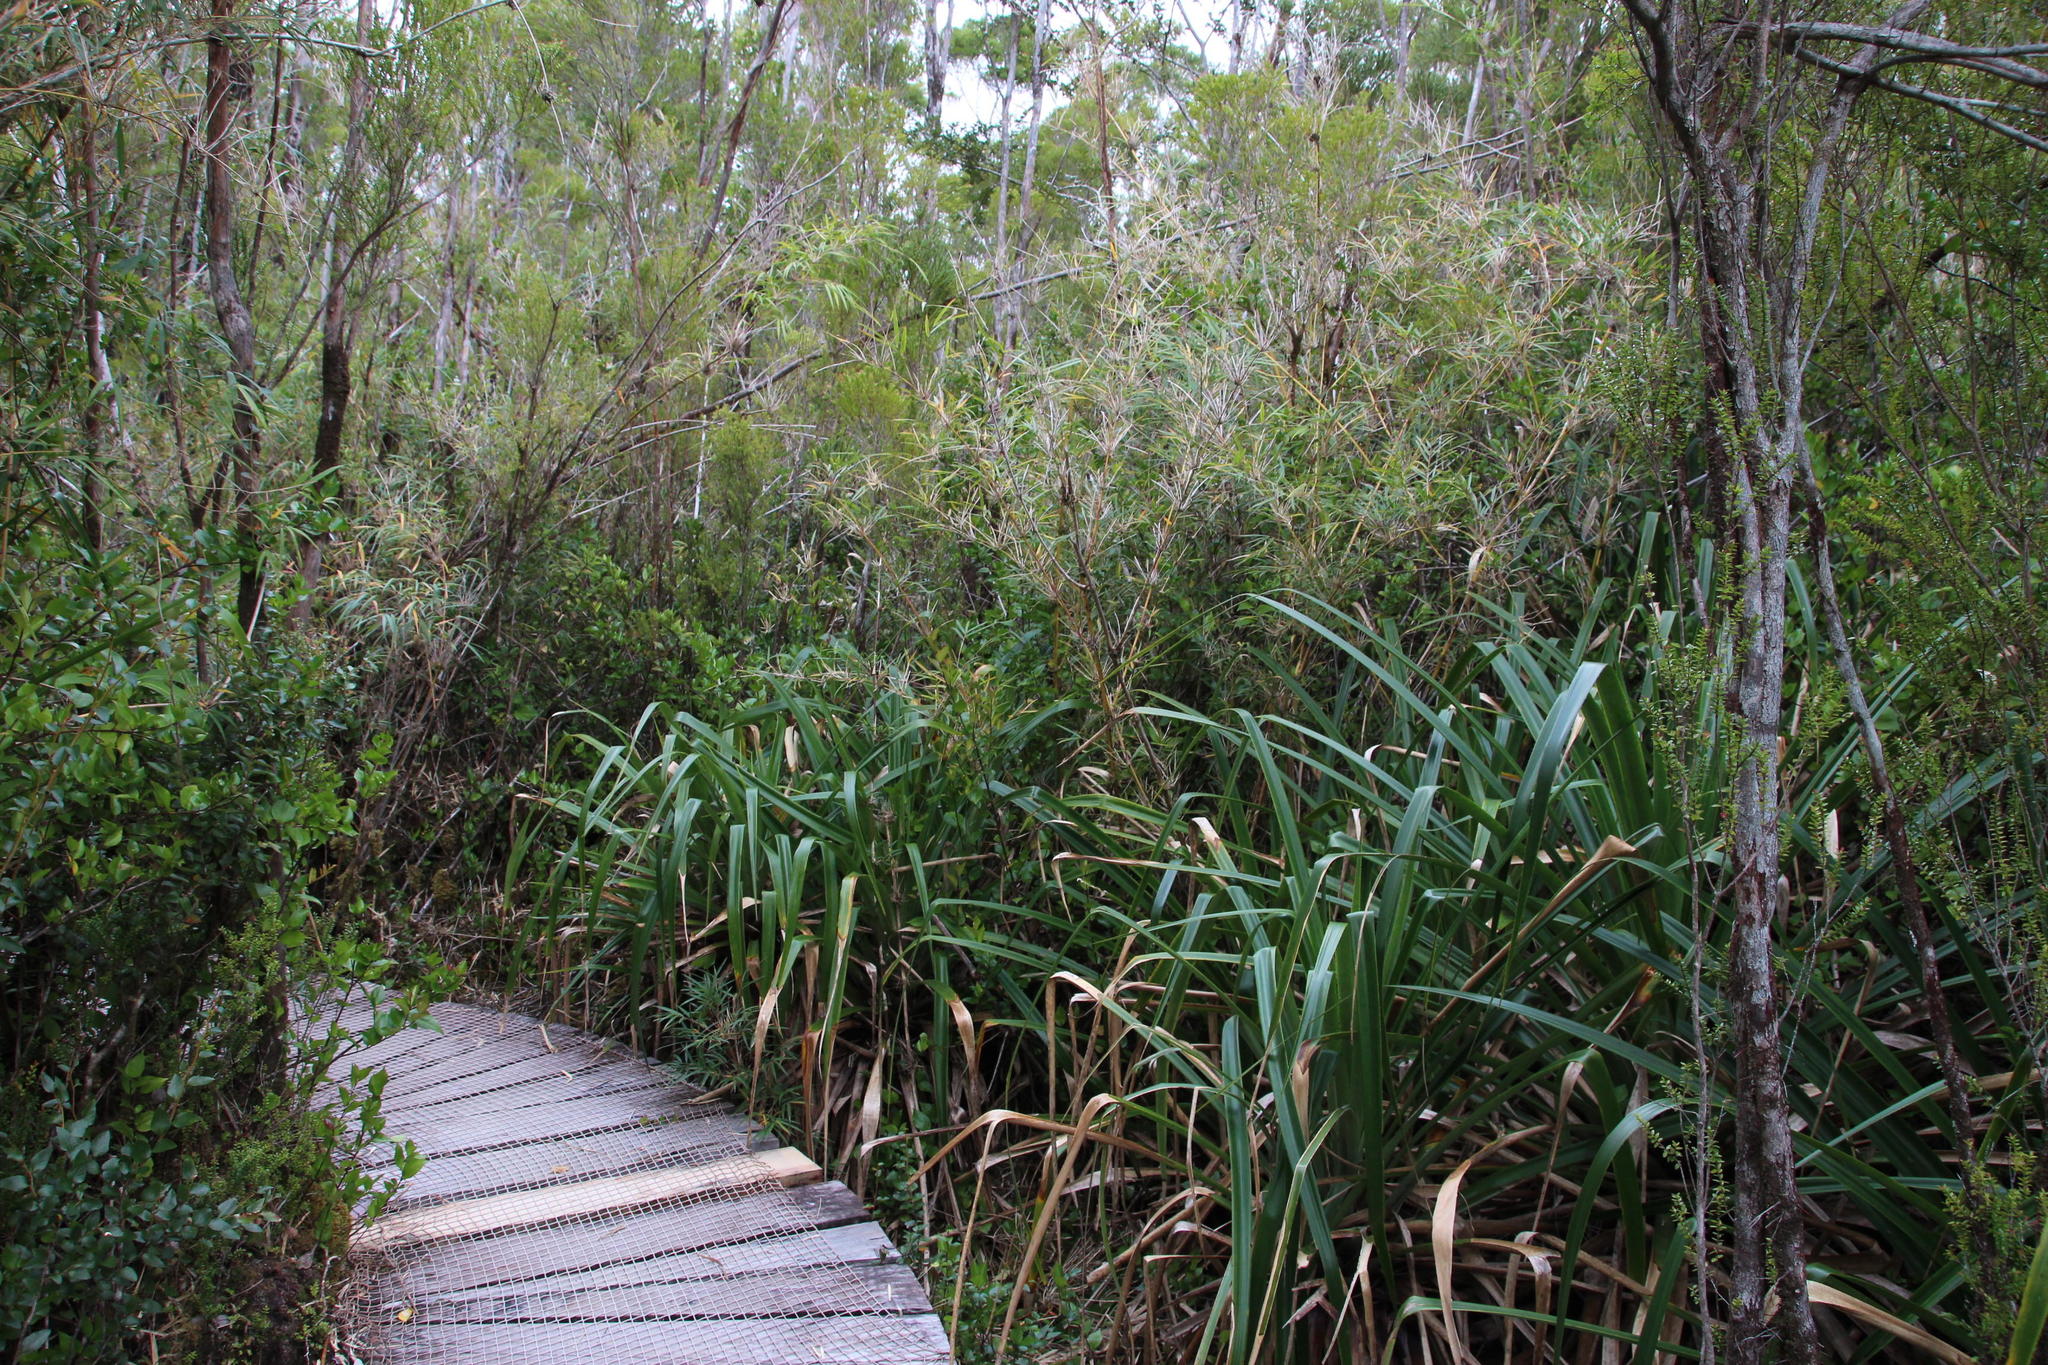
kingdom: Plantae
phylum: Tracheophyta
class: Liliopsida
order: Poales
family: Bromeliaceae
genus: Greigia
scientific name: Greigia sphacelata
